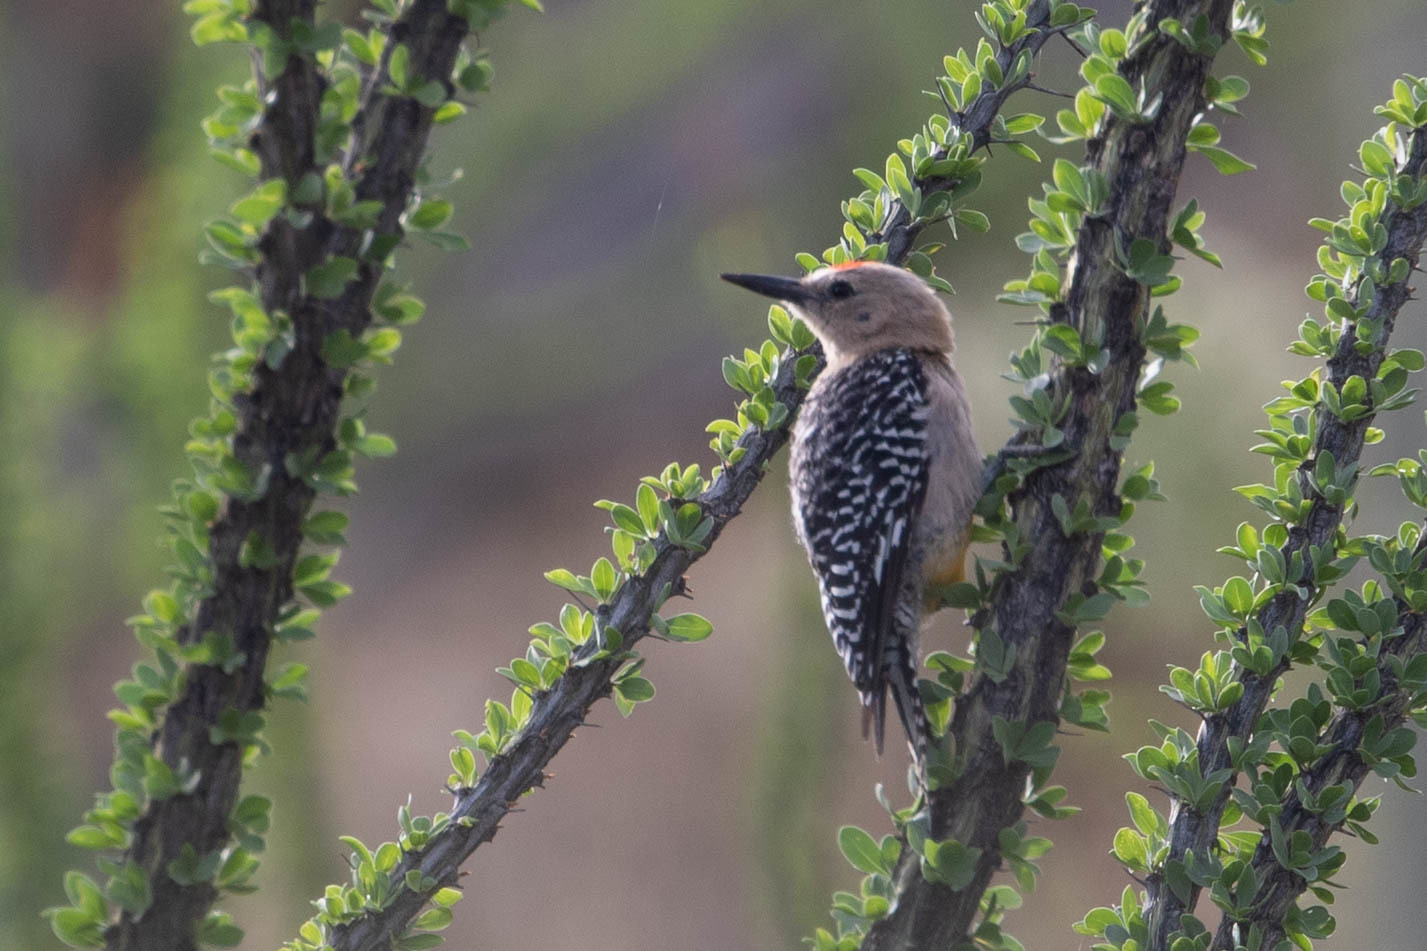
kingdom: Animalia
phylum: Chordata
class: Aves
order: Piciformes
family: Picidae
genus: Melanerpes
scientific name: Melanerpes uropygialis
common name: Gila woodpecker
